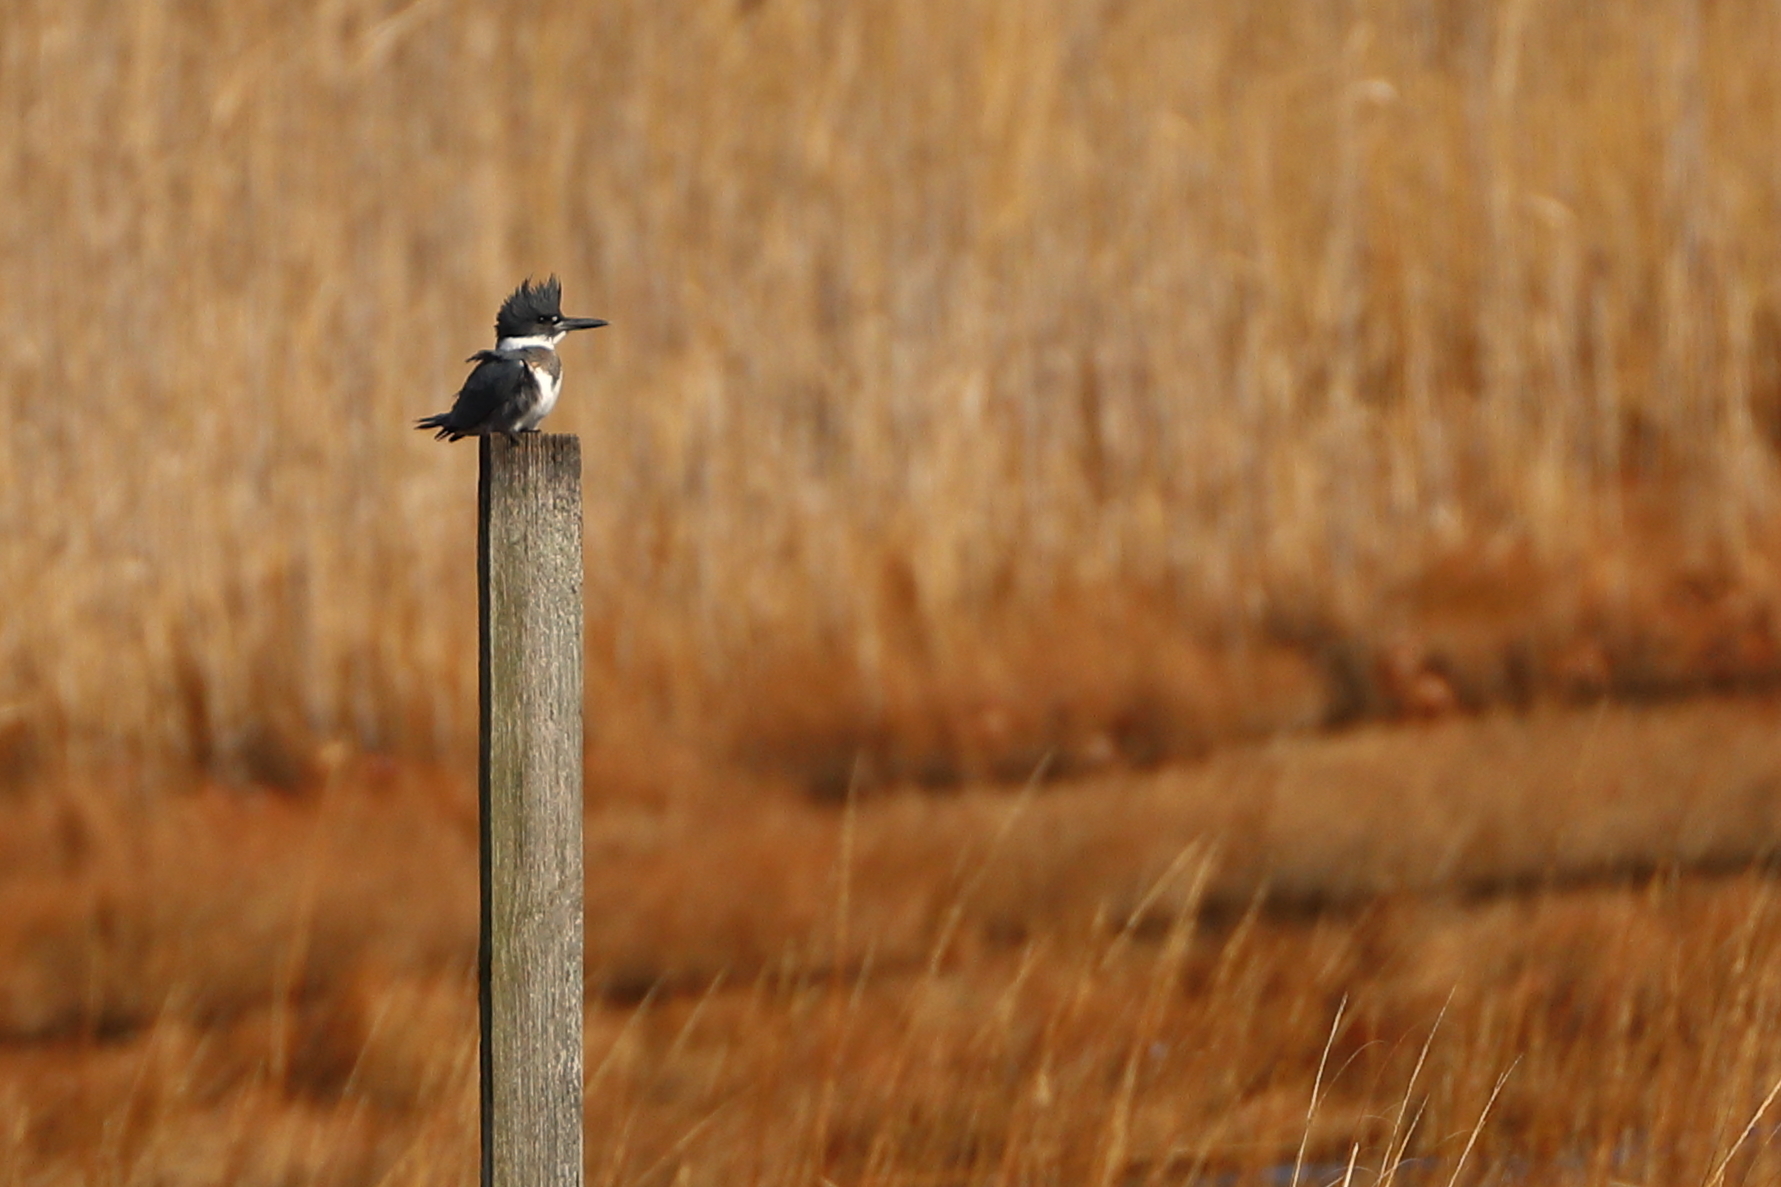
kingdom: Animalia
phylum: Chordata
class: Aves
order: Coraciiformes
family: Alcedinidae
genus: Megaceryle
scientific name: Megaceryle alcyon
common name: Belted kingfisher
